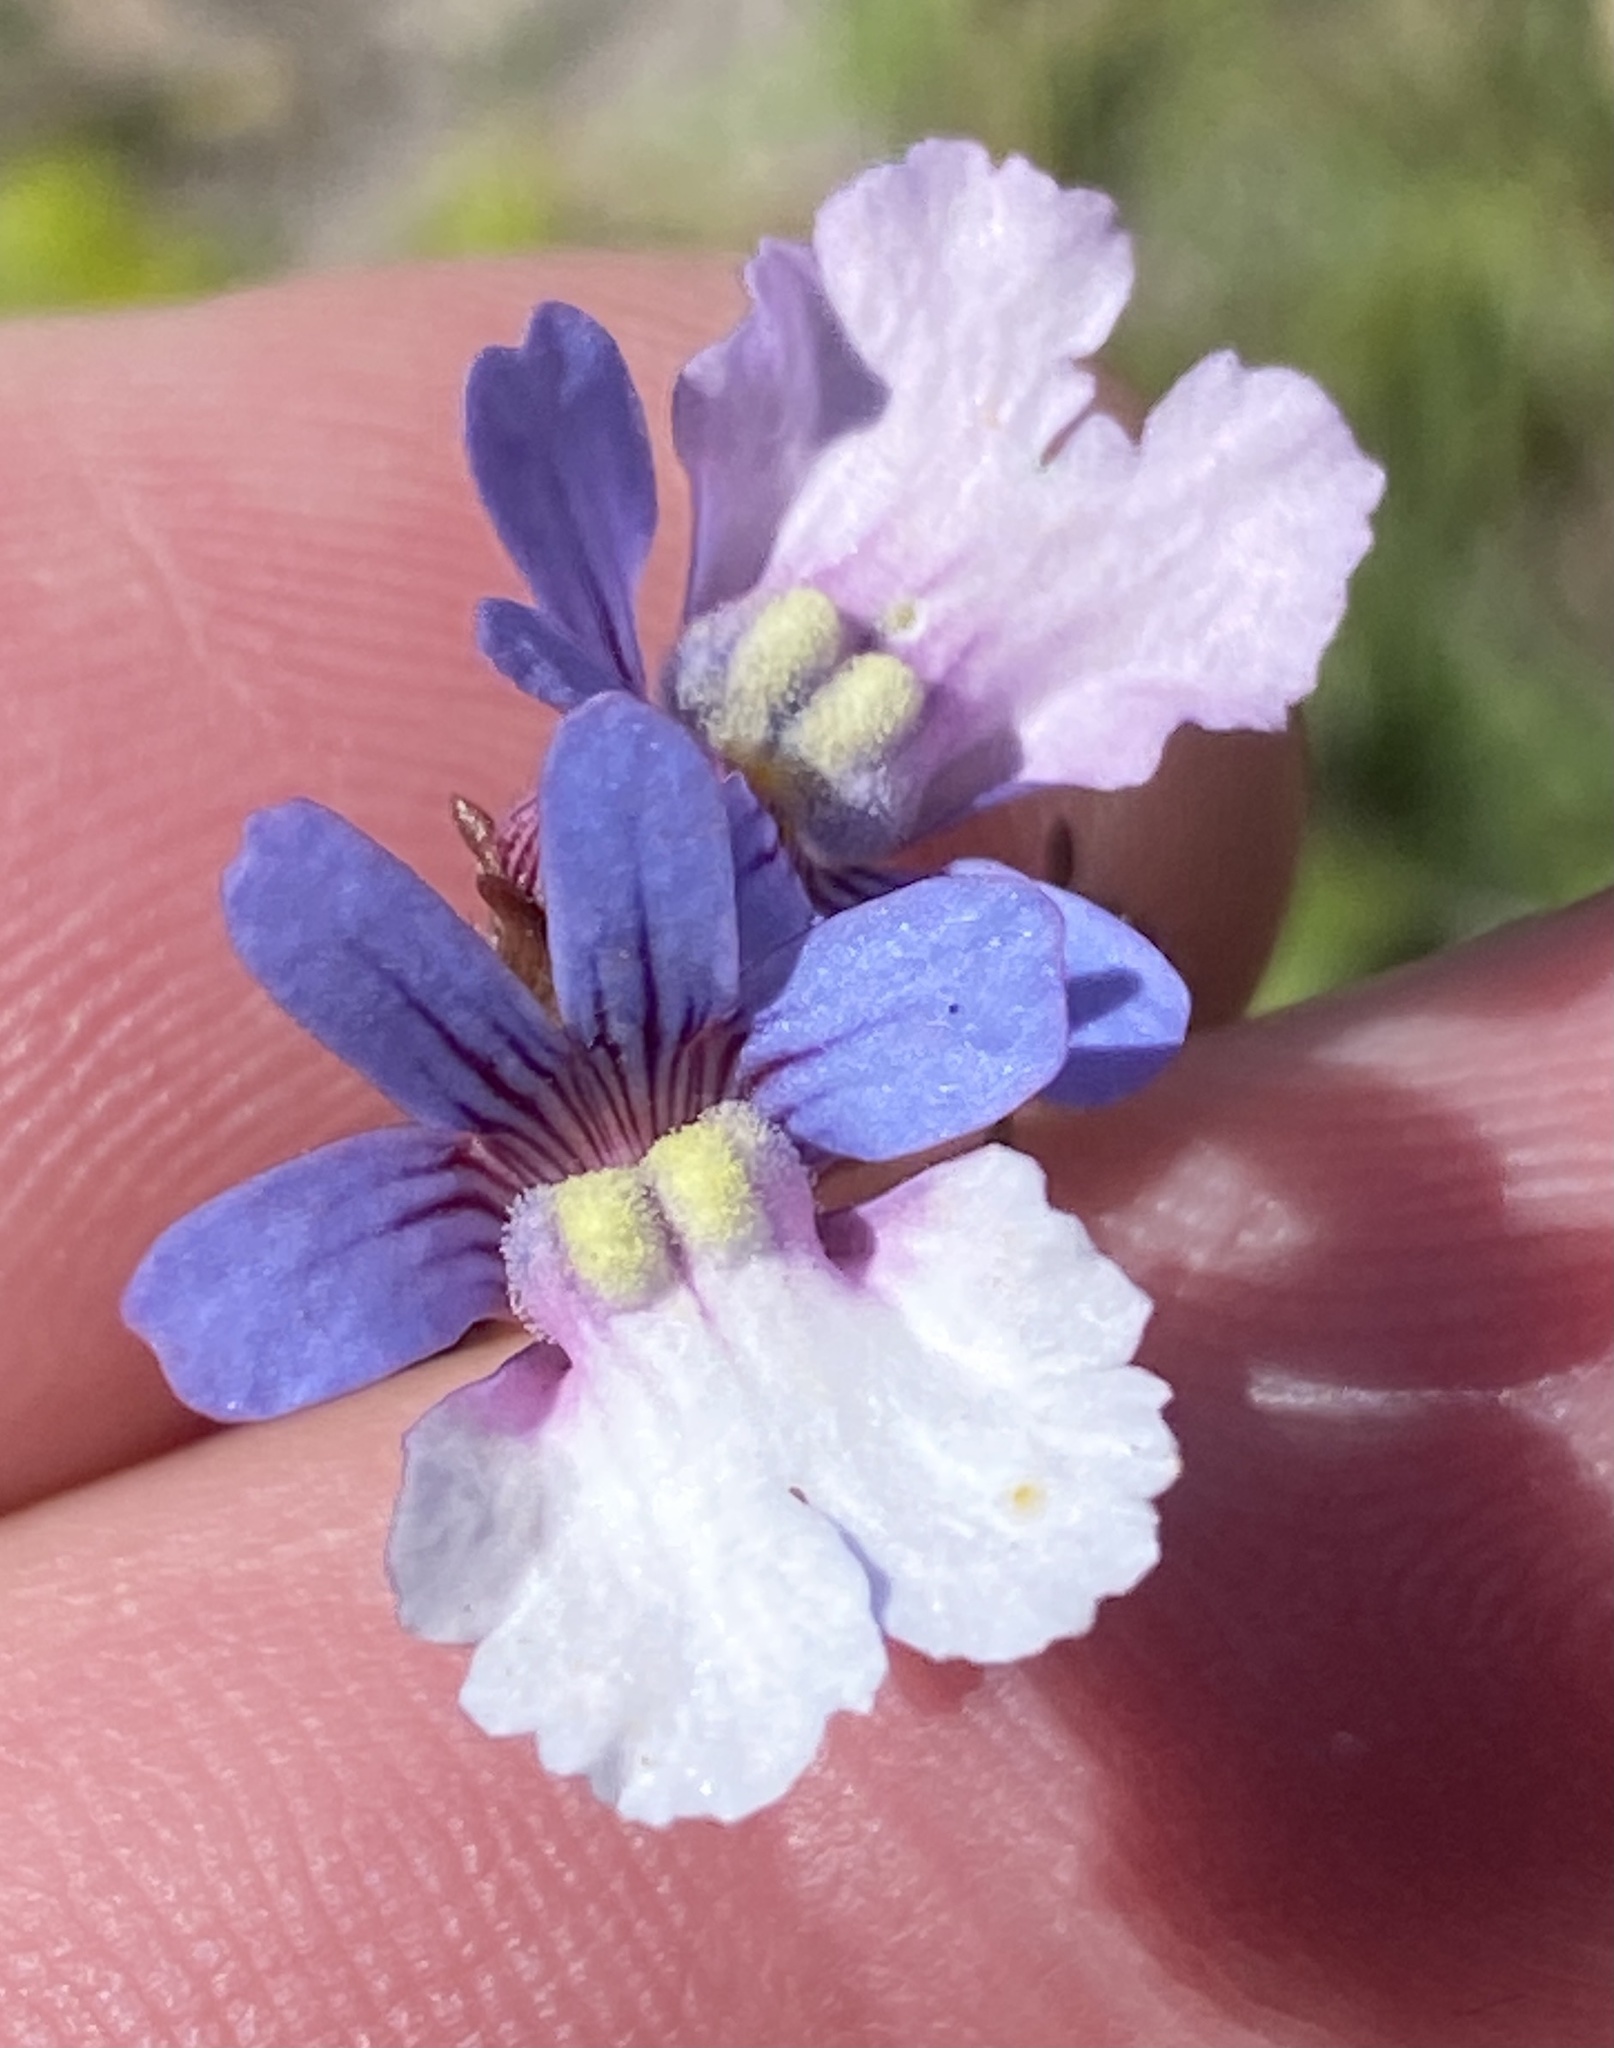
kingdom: Plantae
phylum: Tracheophyta
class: Magnoliopsida
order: Lamiales
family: Scrophulariaceae
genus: Nemesia
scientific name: Nemesia affinis
